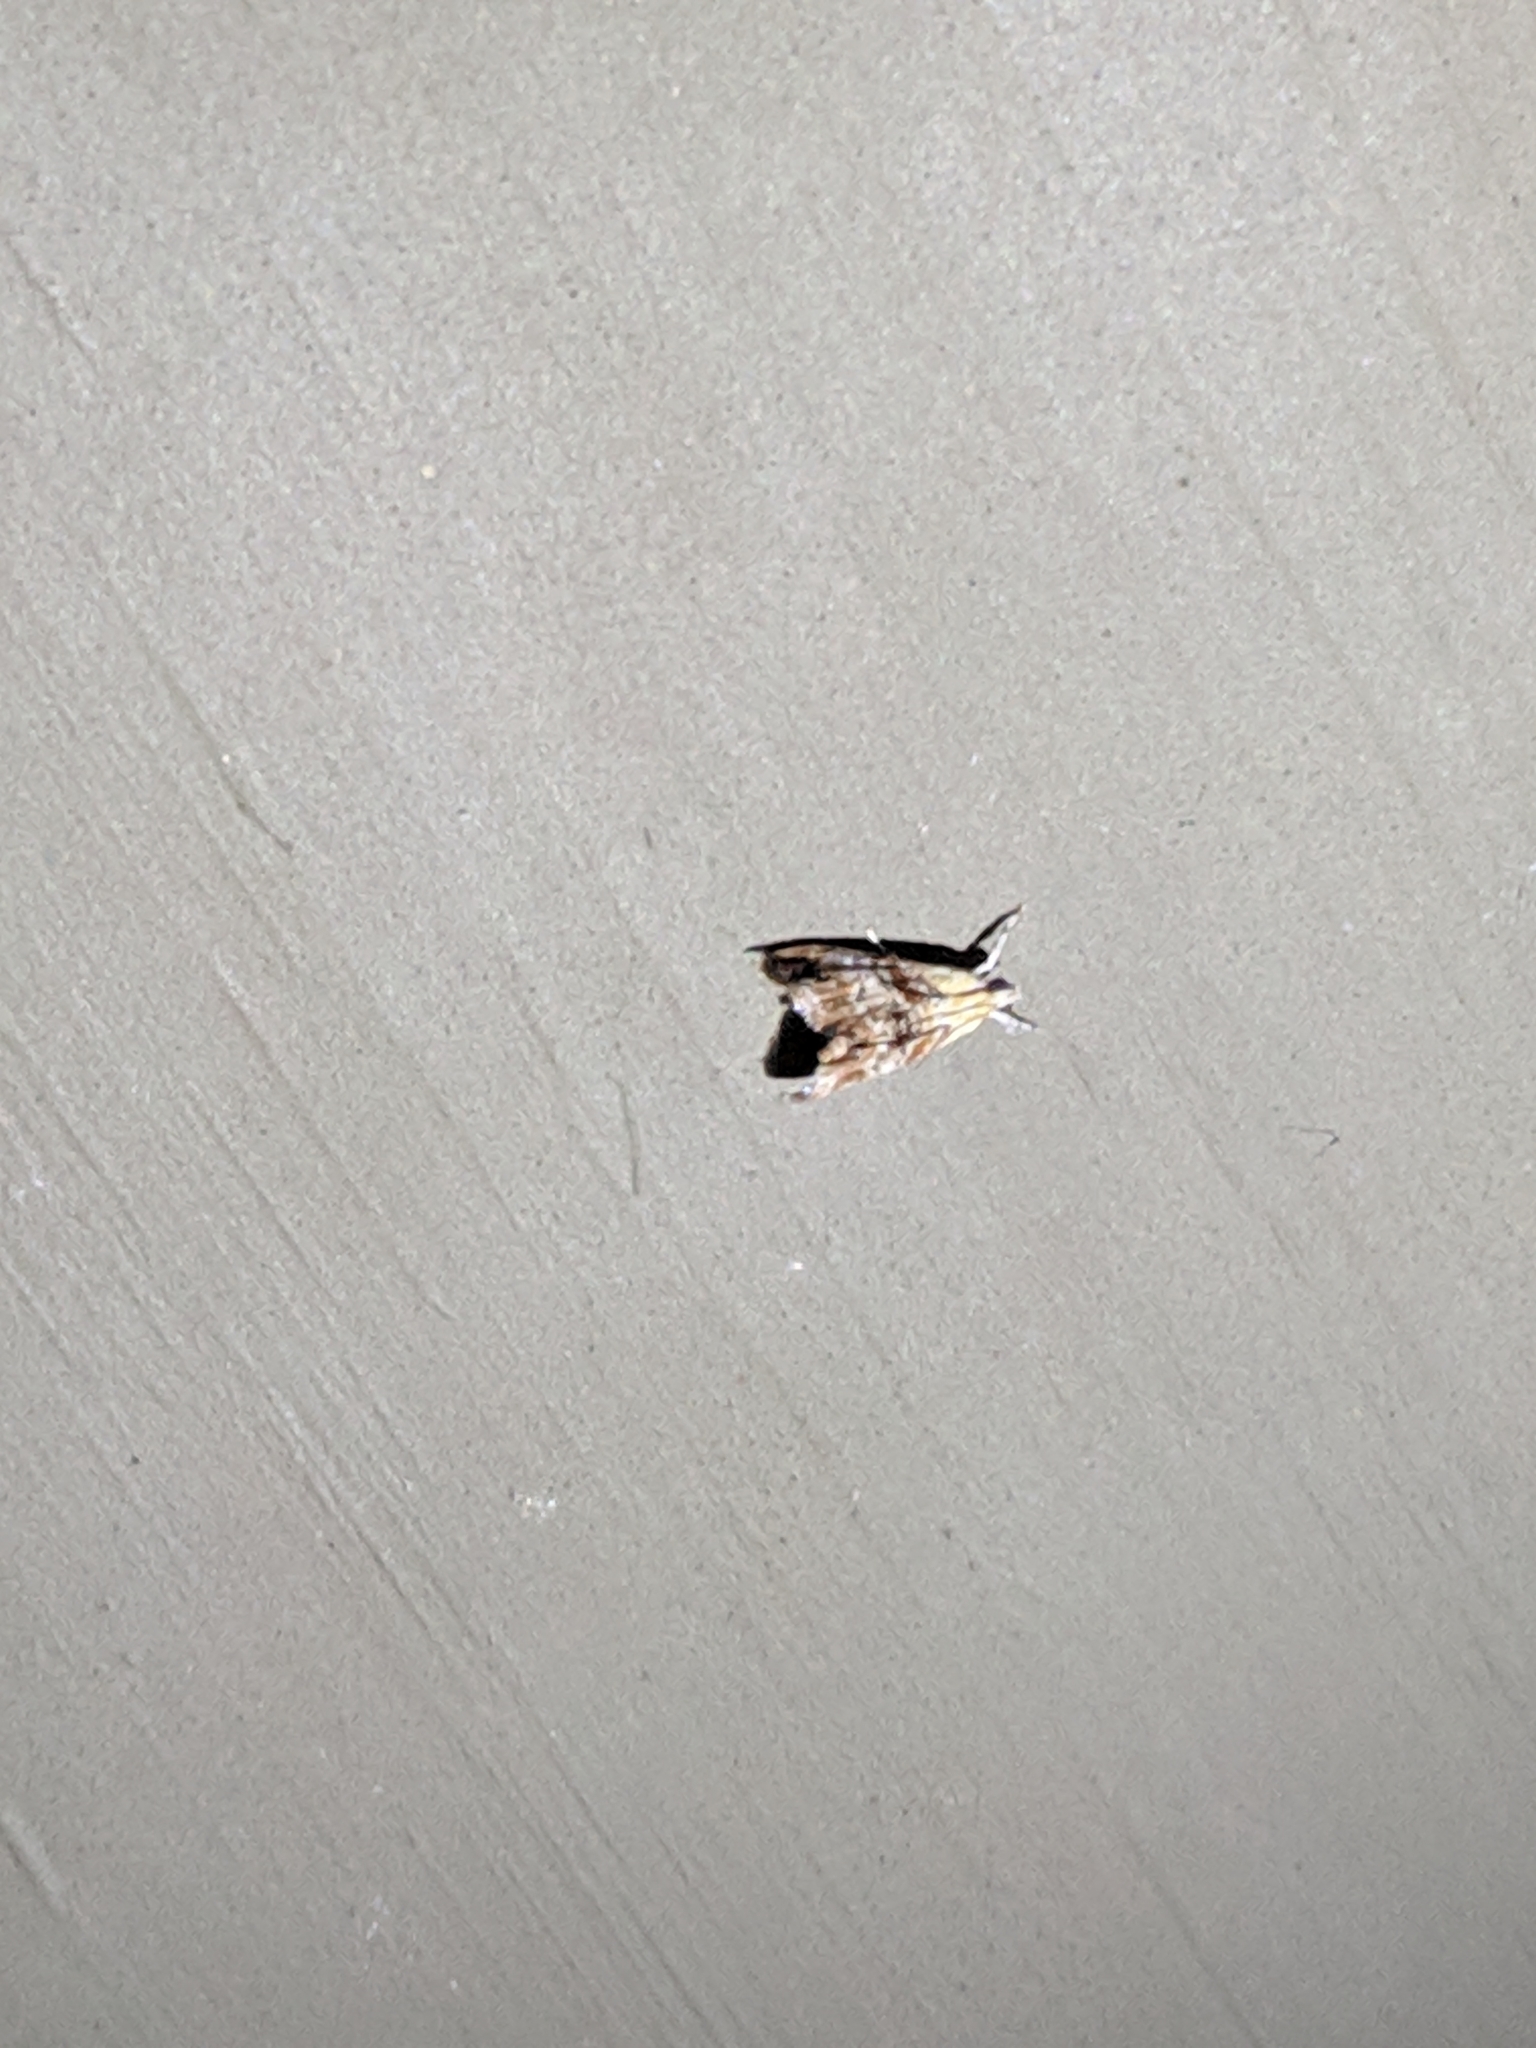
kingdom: Animalia
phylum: Arthropoda
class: Insecta
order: Lepidoptera
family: Crambidae
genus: Dicymolomia
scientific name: Dicymolomia julianalis
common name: Julia's dicymolomia moth
